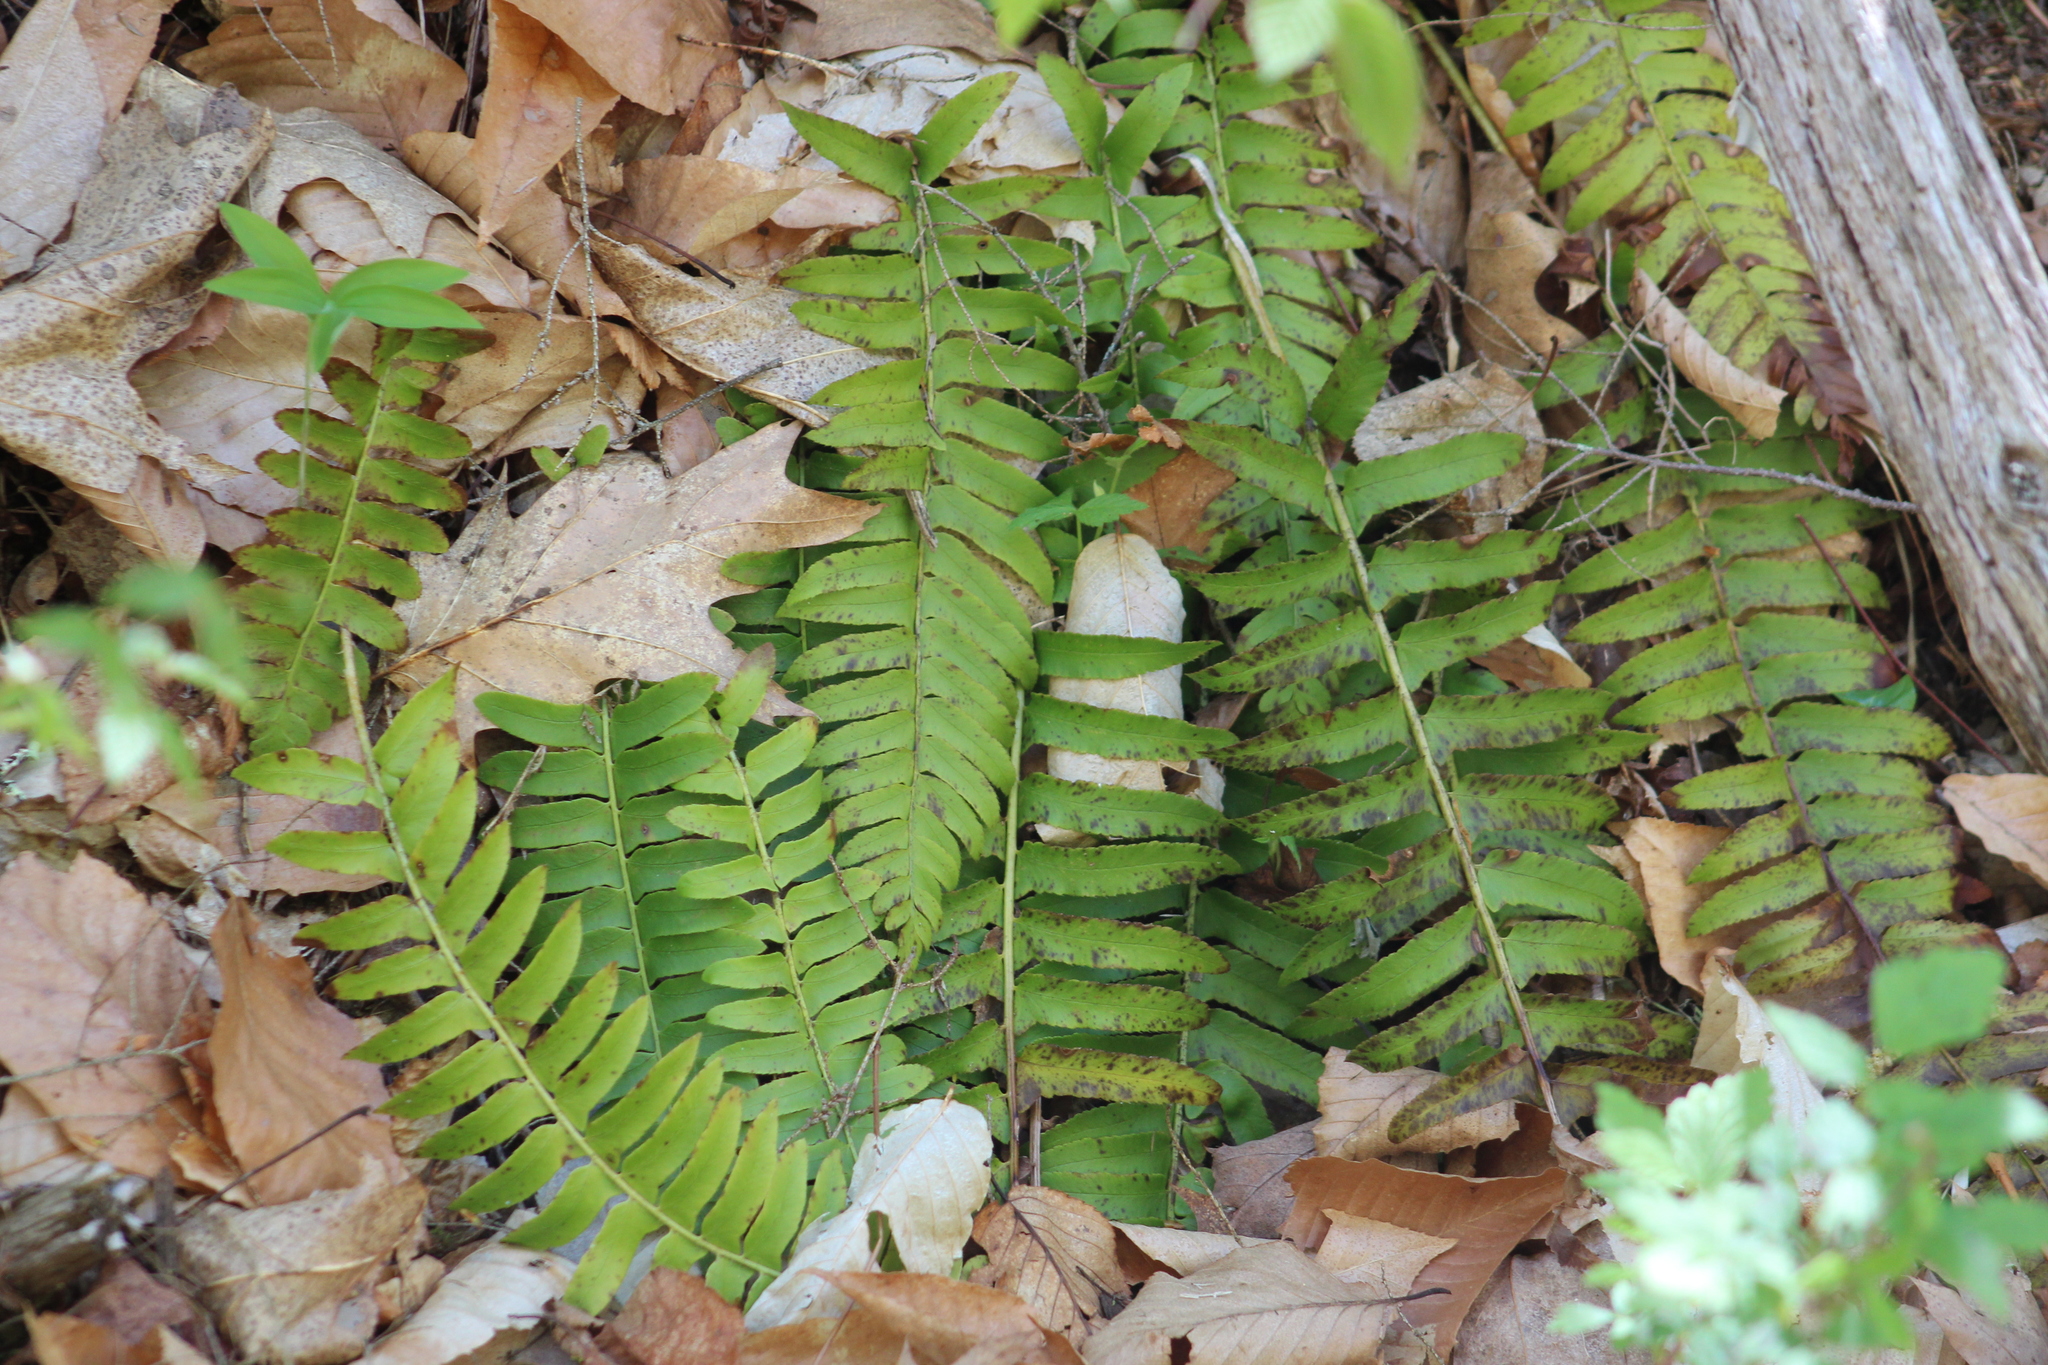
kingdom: Plantae
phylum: Tracheophyta
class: Polypodiopsida
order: Polypodiales
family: Dryopteridaceae
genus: Polystichum
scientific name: Polystichum acrostichoides
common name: Christmas fern
